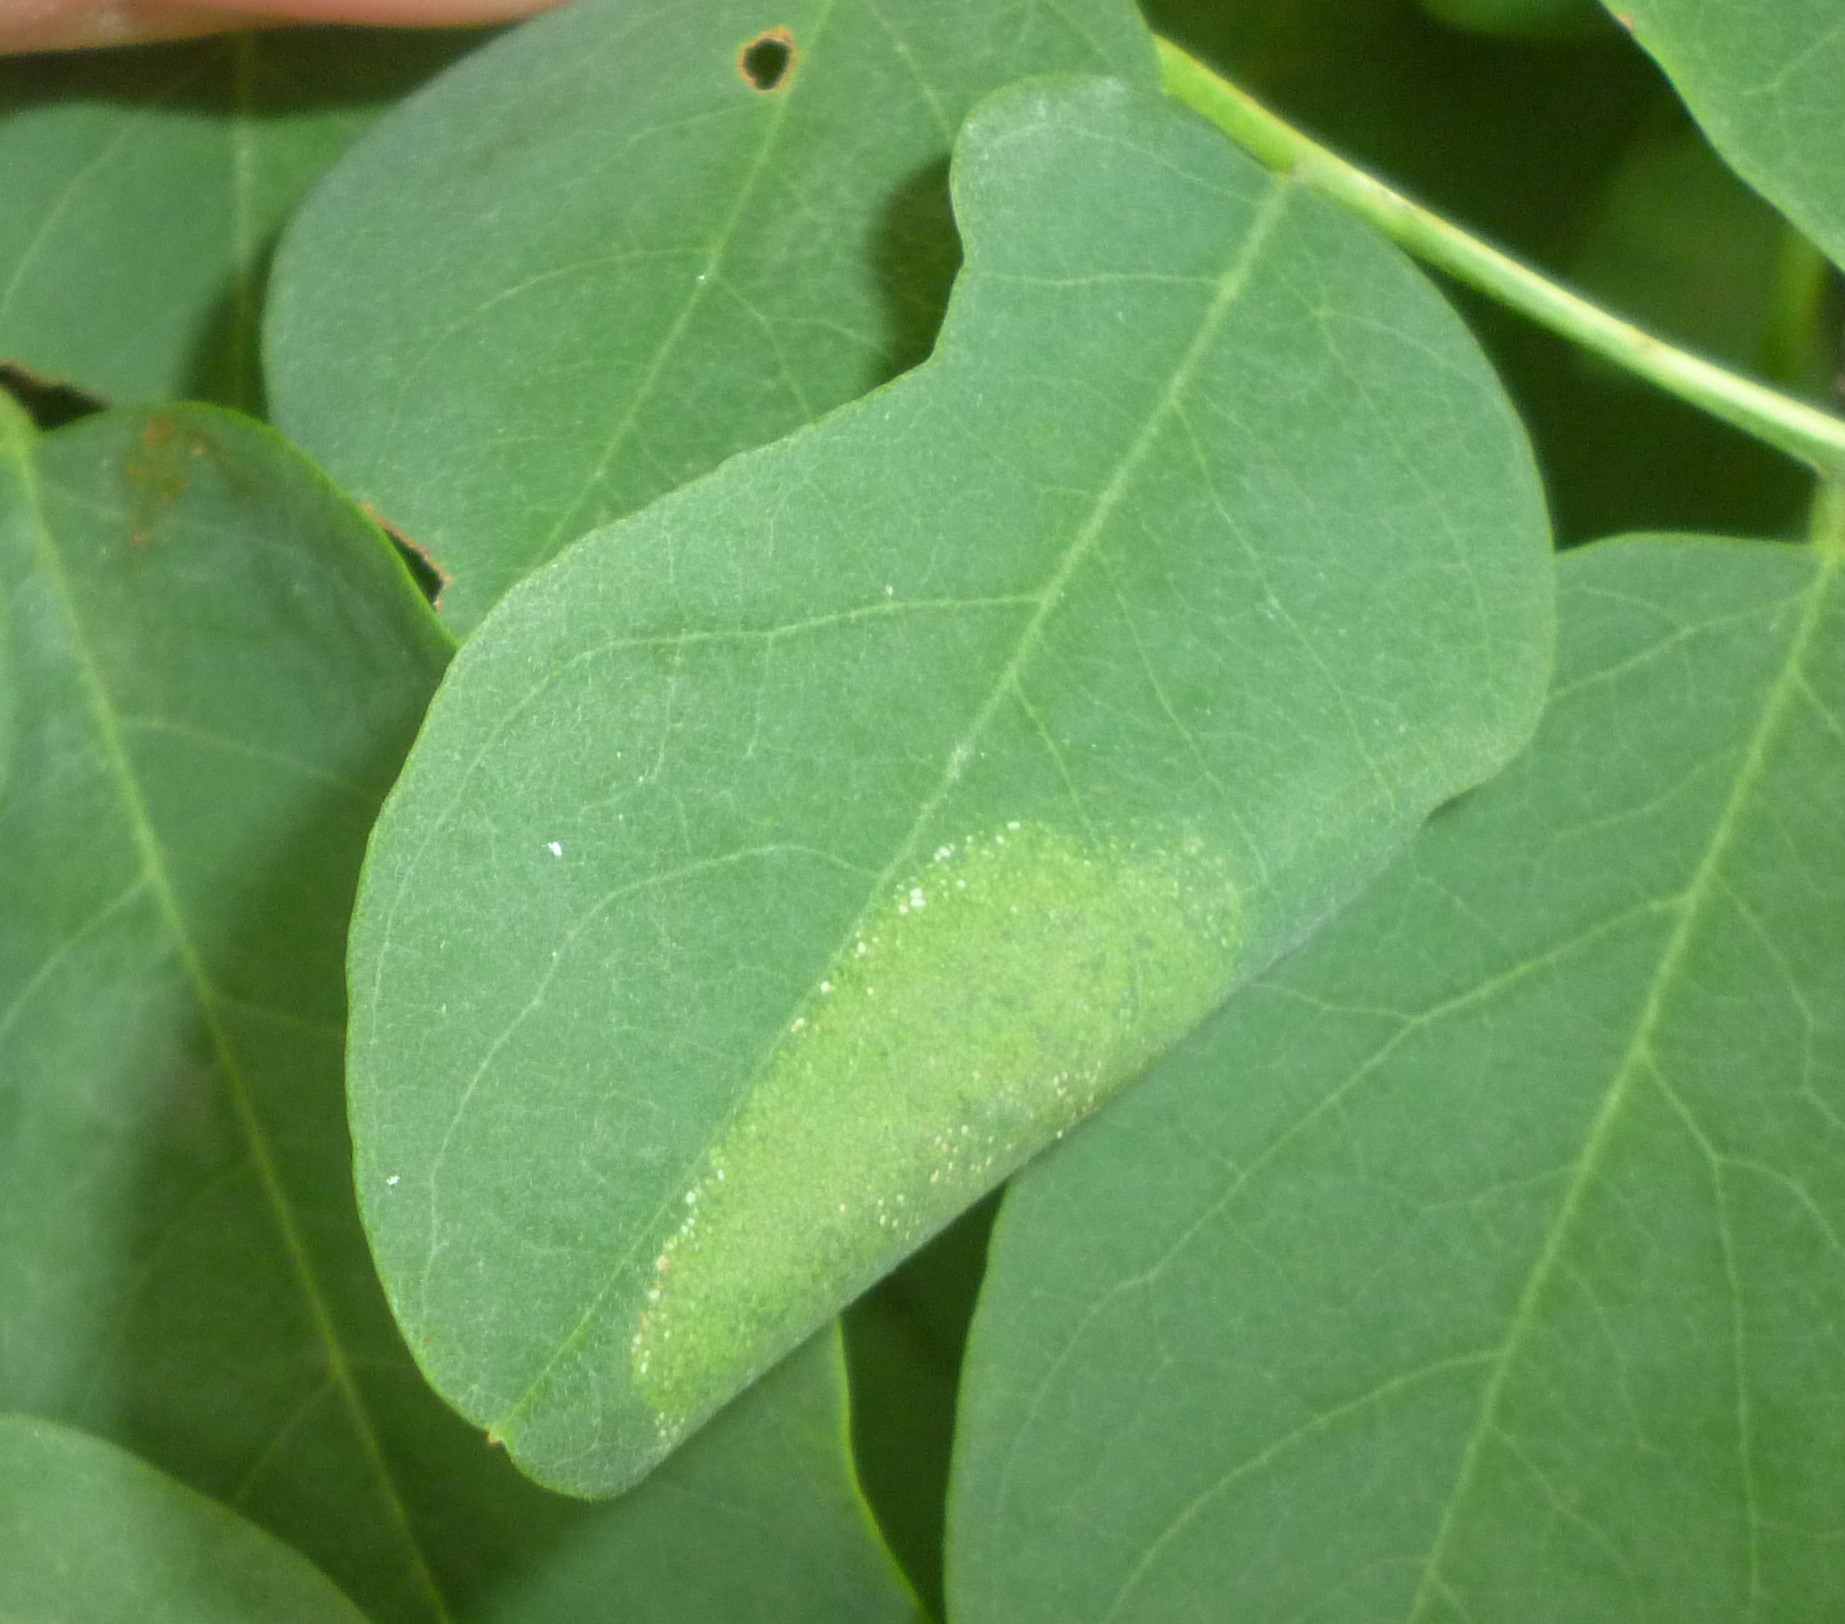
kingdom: Animalia
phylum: Arthropoda
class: Insecta
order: Lepidoptera
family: Gracillariidae
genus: Macrosaccus
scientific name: Macrosaccus robiniella
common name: Leaf blotch miner moth
